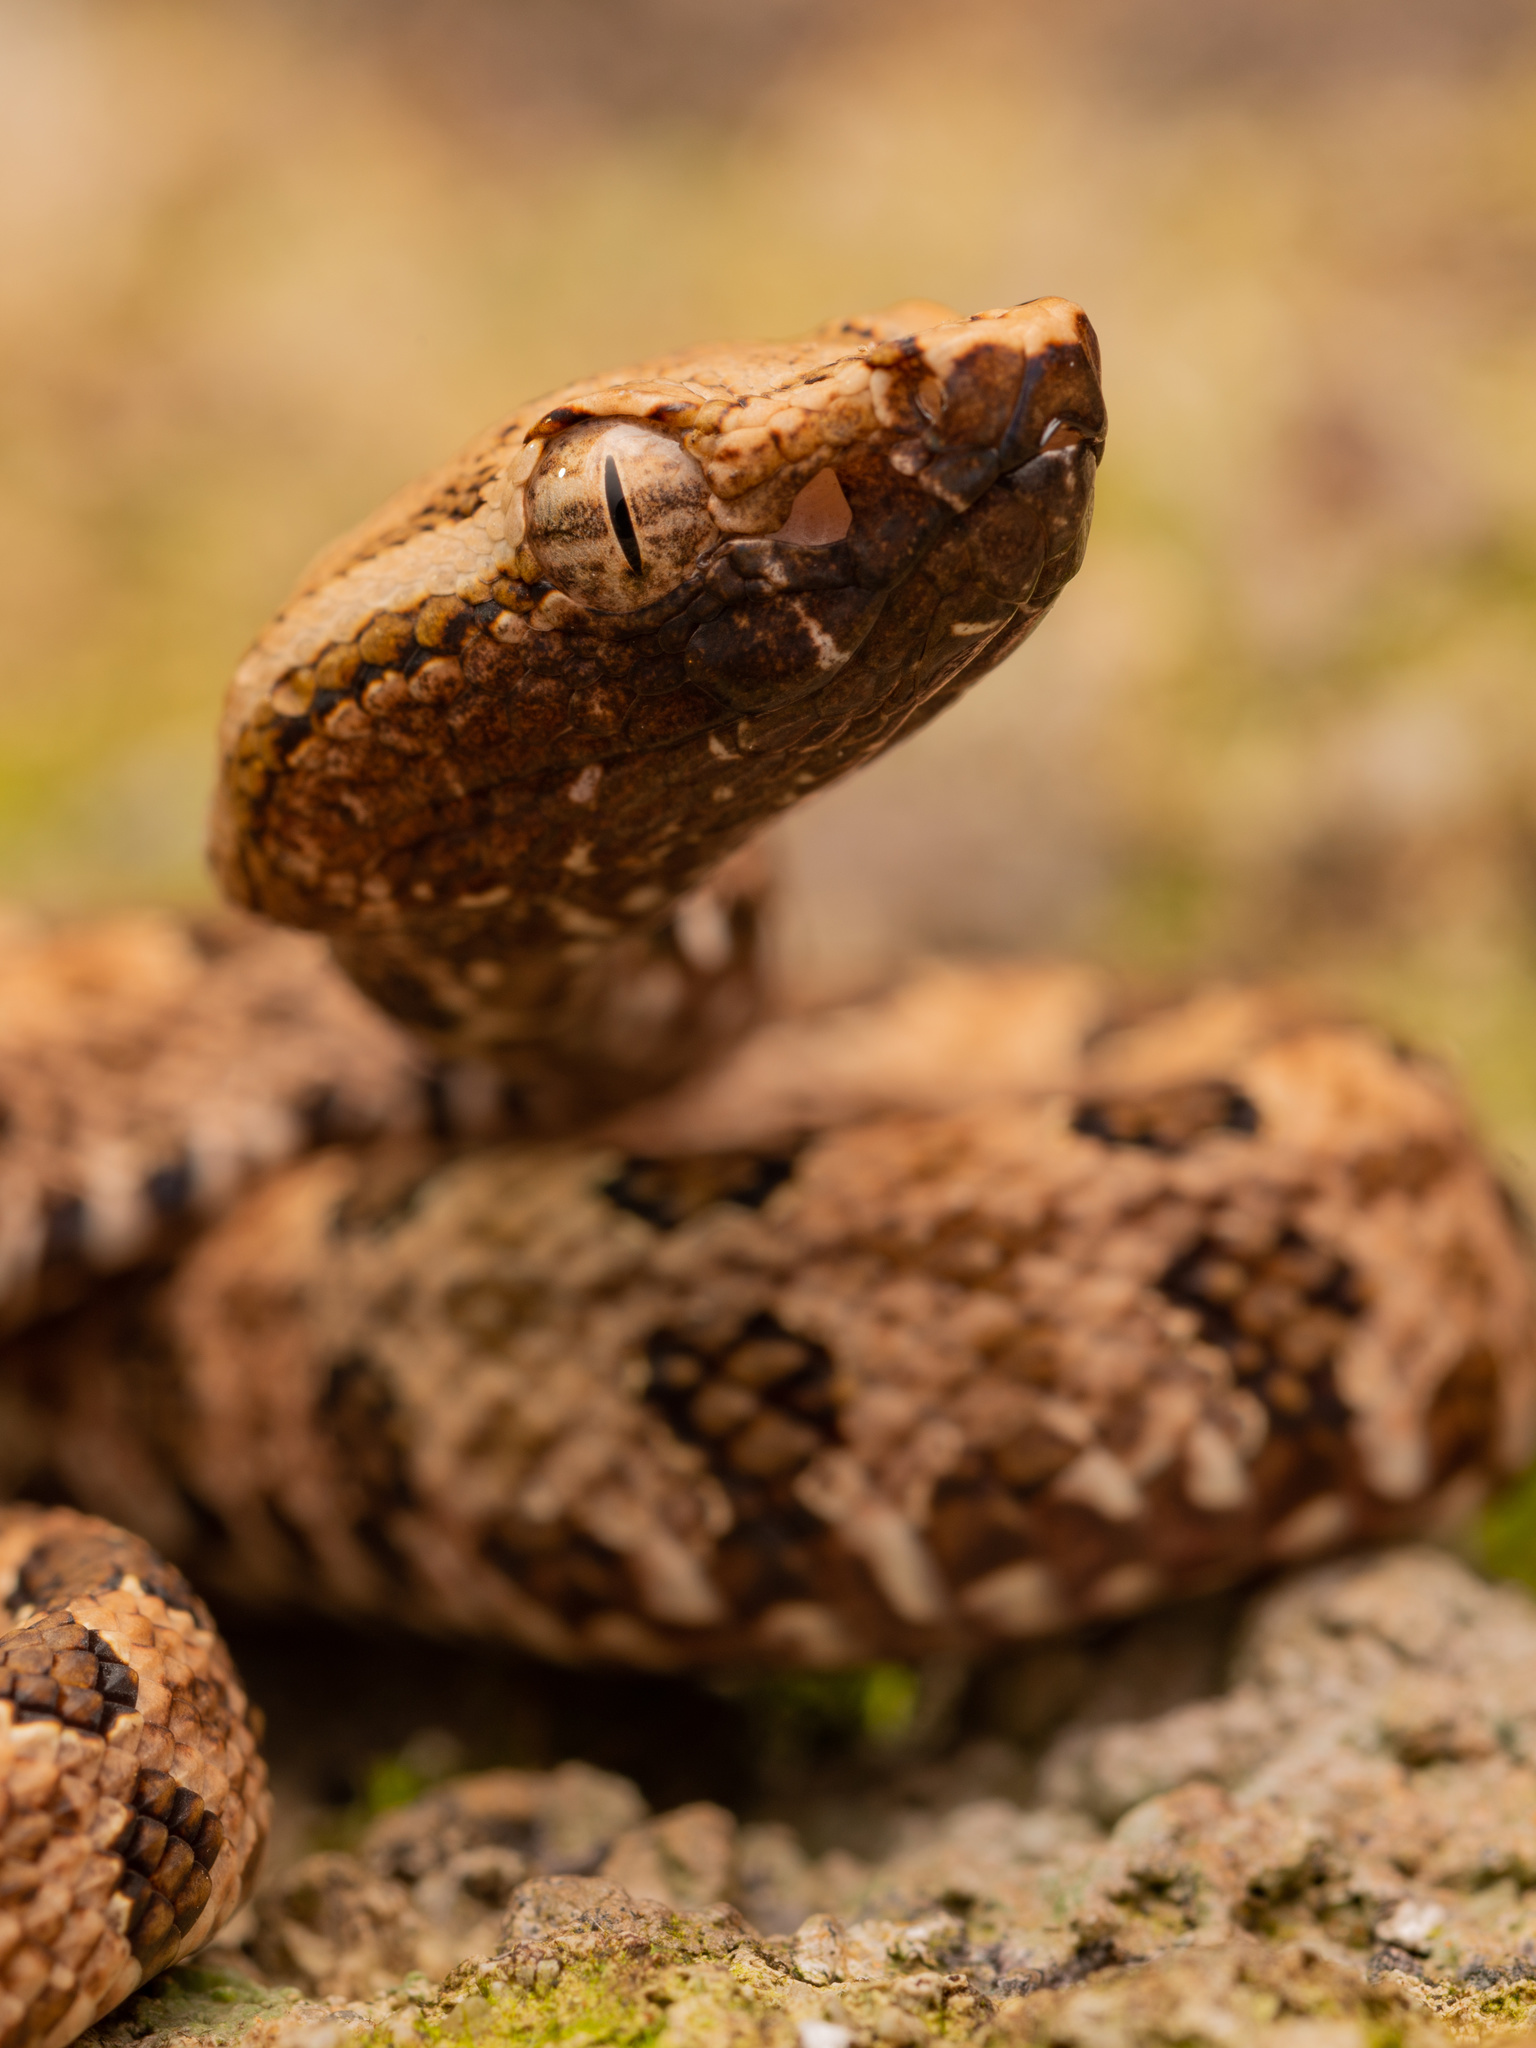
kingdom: Animalia
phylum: Chordata
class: Squamata
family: Viperidae
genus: Protobothrops
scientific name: Protobothrops mucrosquamatus
